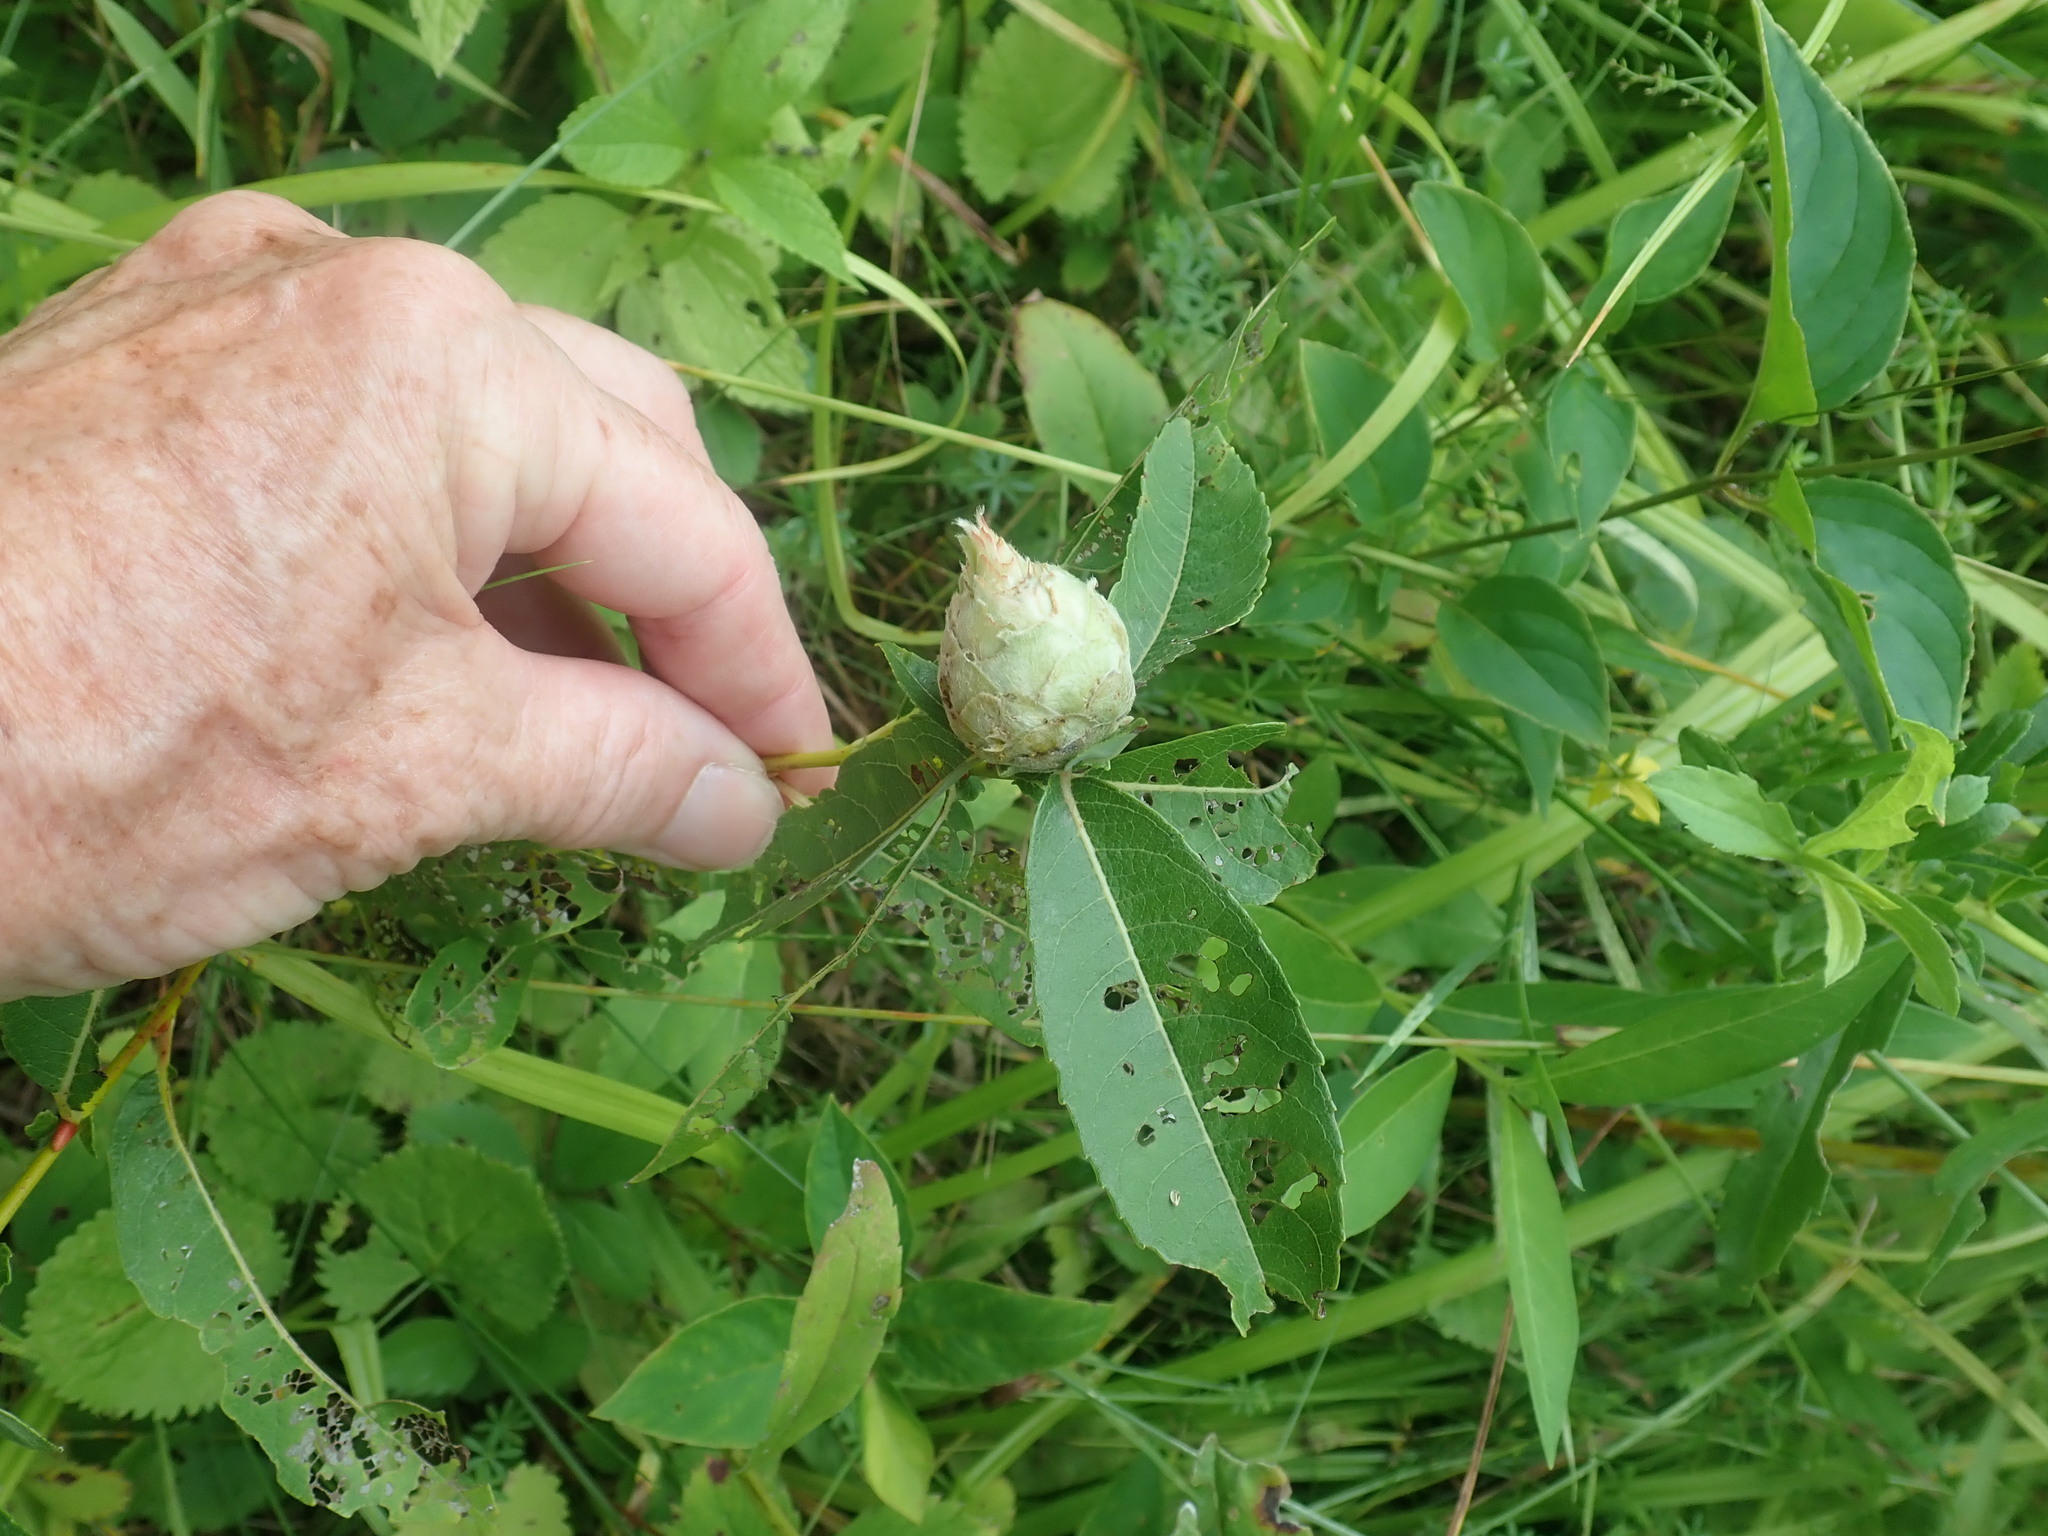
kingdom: Animalia
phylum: Arthropoda
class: Insecta
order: Diptera
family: Cecidomyiidae
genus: Rabdophaga
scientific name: Rabdophaga strobiloides
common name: Willow pinecone gall midge
